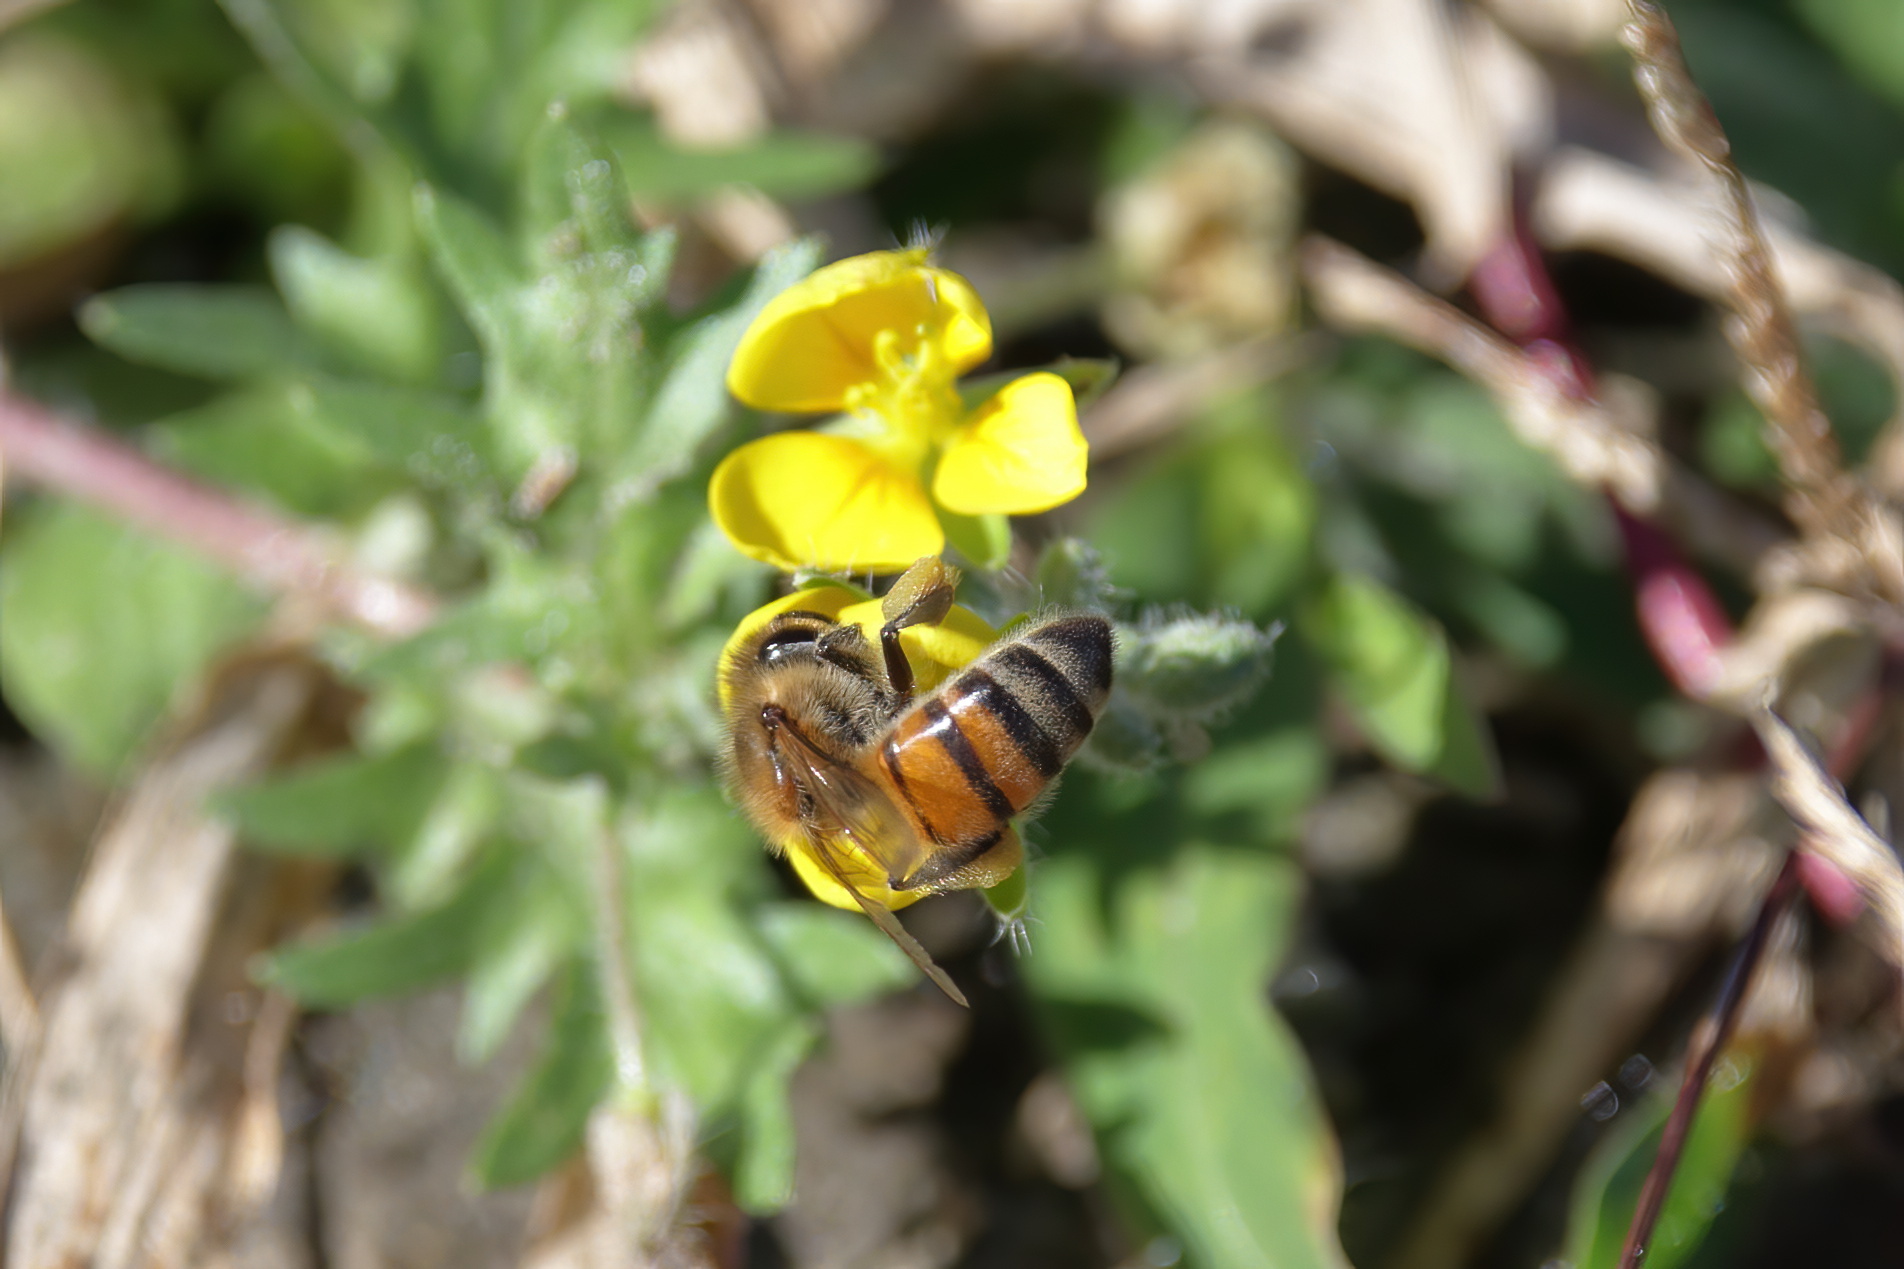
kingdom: Animalia
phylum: Arthropoda
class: Insecta
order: Hymenoptera
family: Apidae
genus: Apis
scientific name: Apis mellifera
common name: Honey bee
